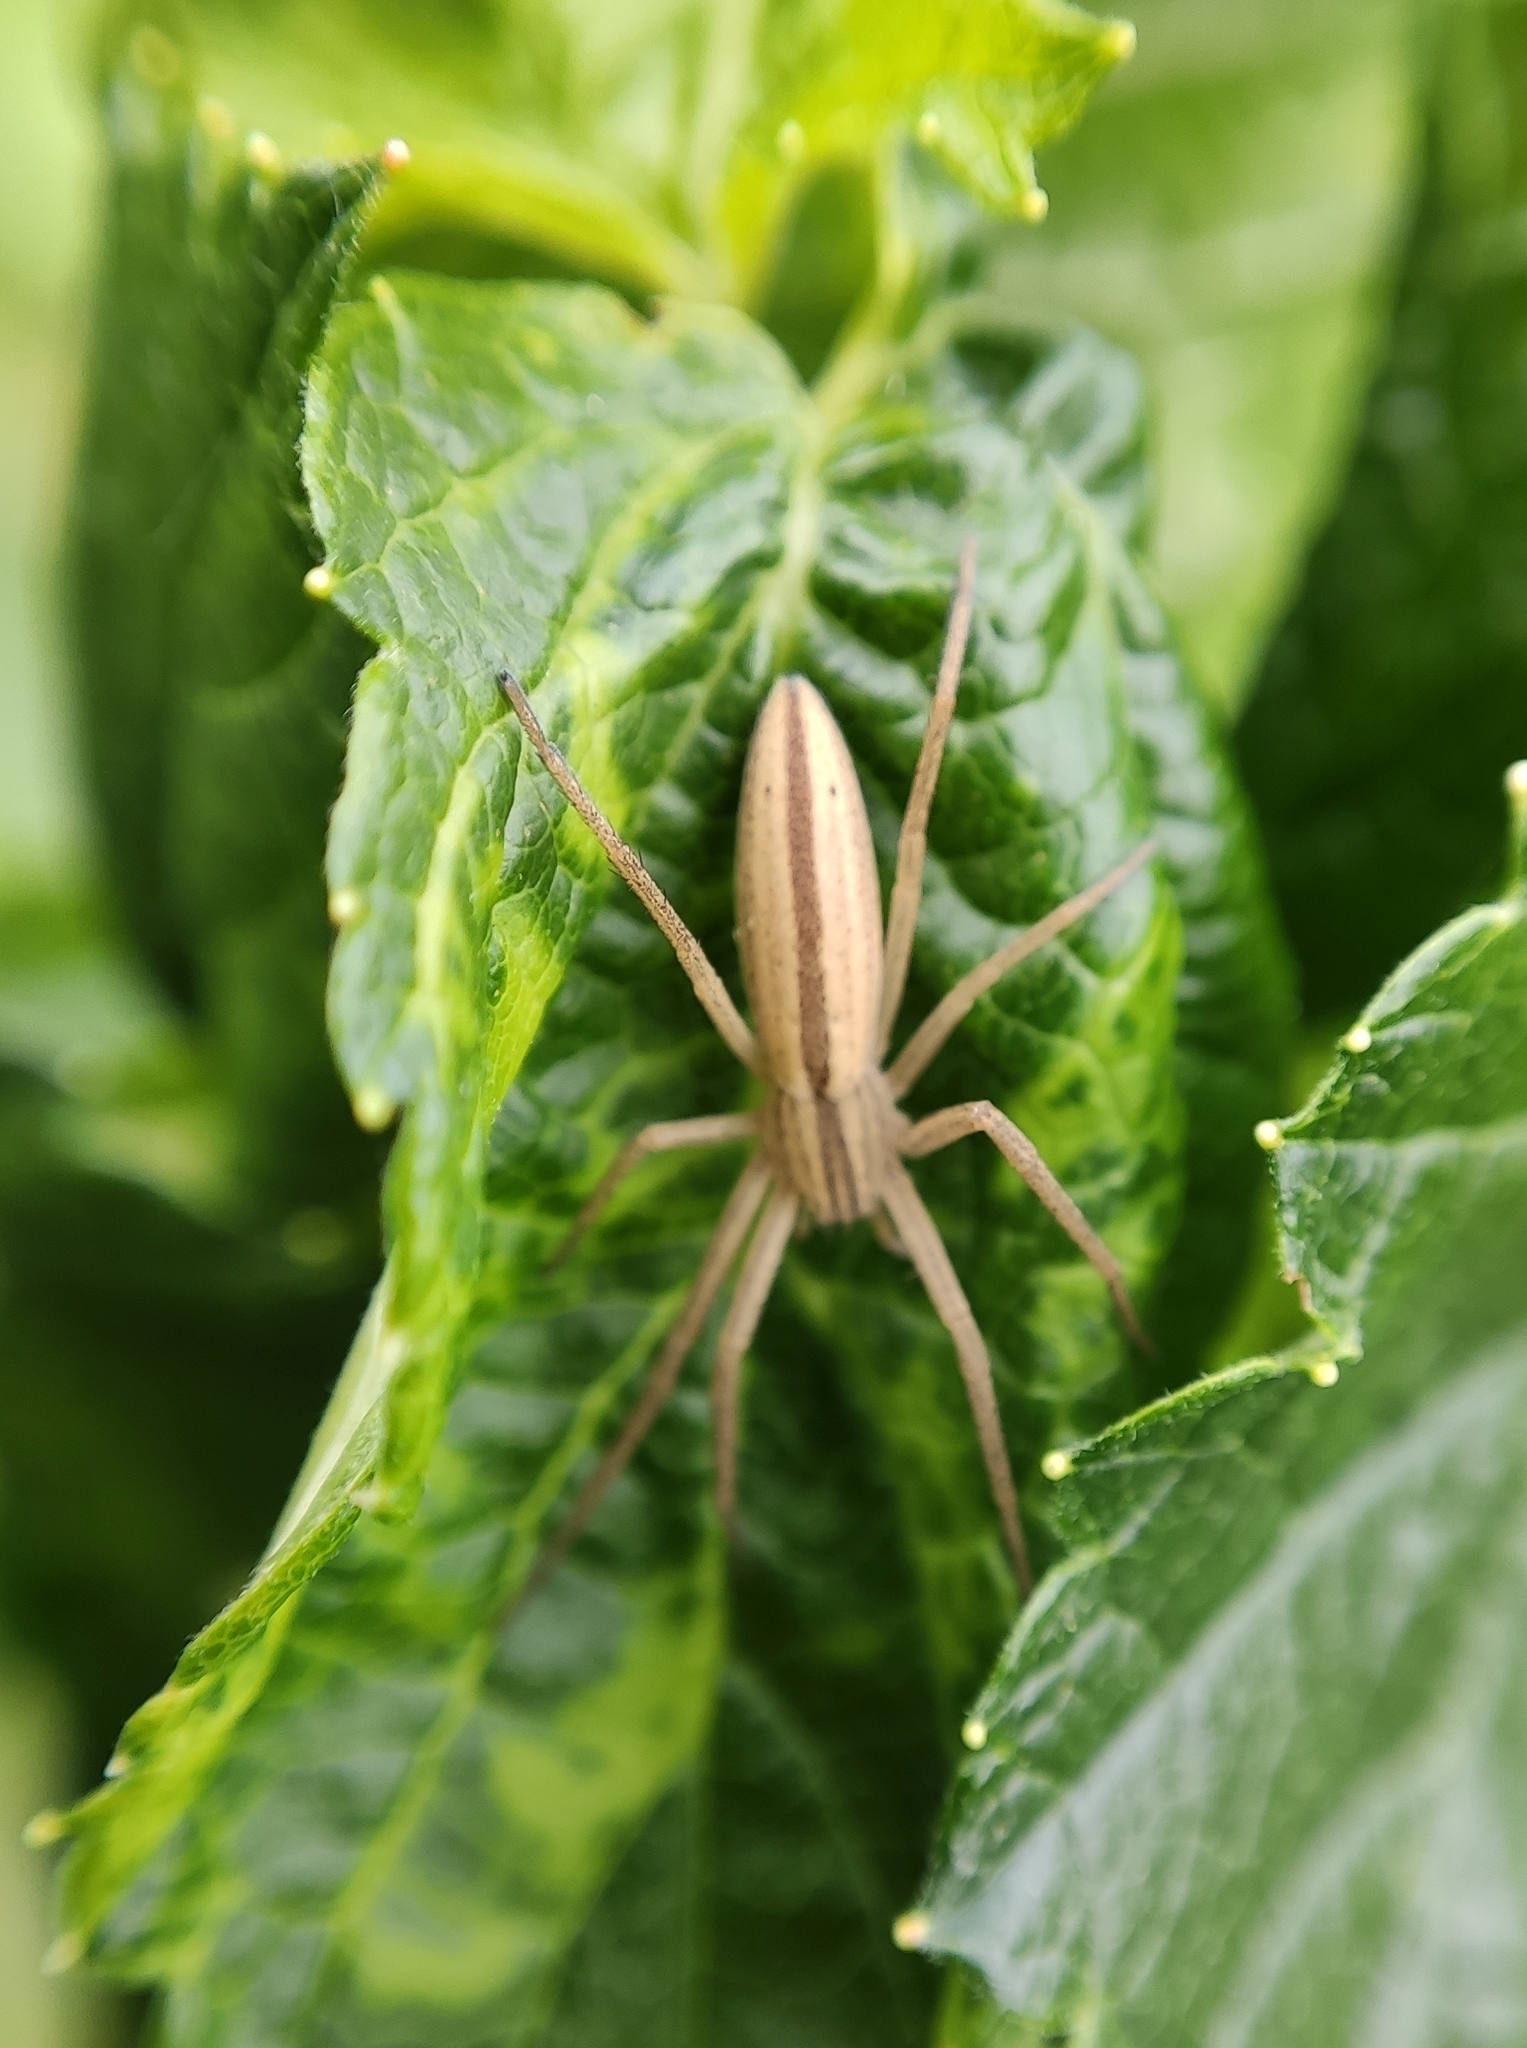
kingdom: Animalia
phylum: Arthropoda
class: Arachnida
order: Araneae
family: Philodromidae
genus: Tibellus
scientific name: Tibellus oblongus
